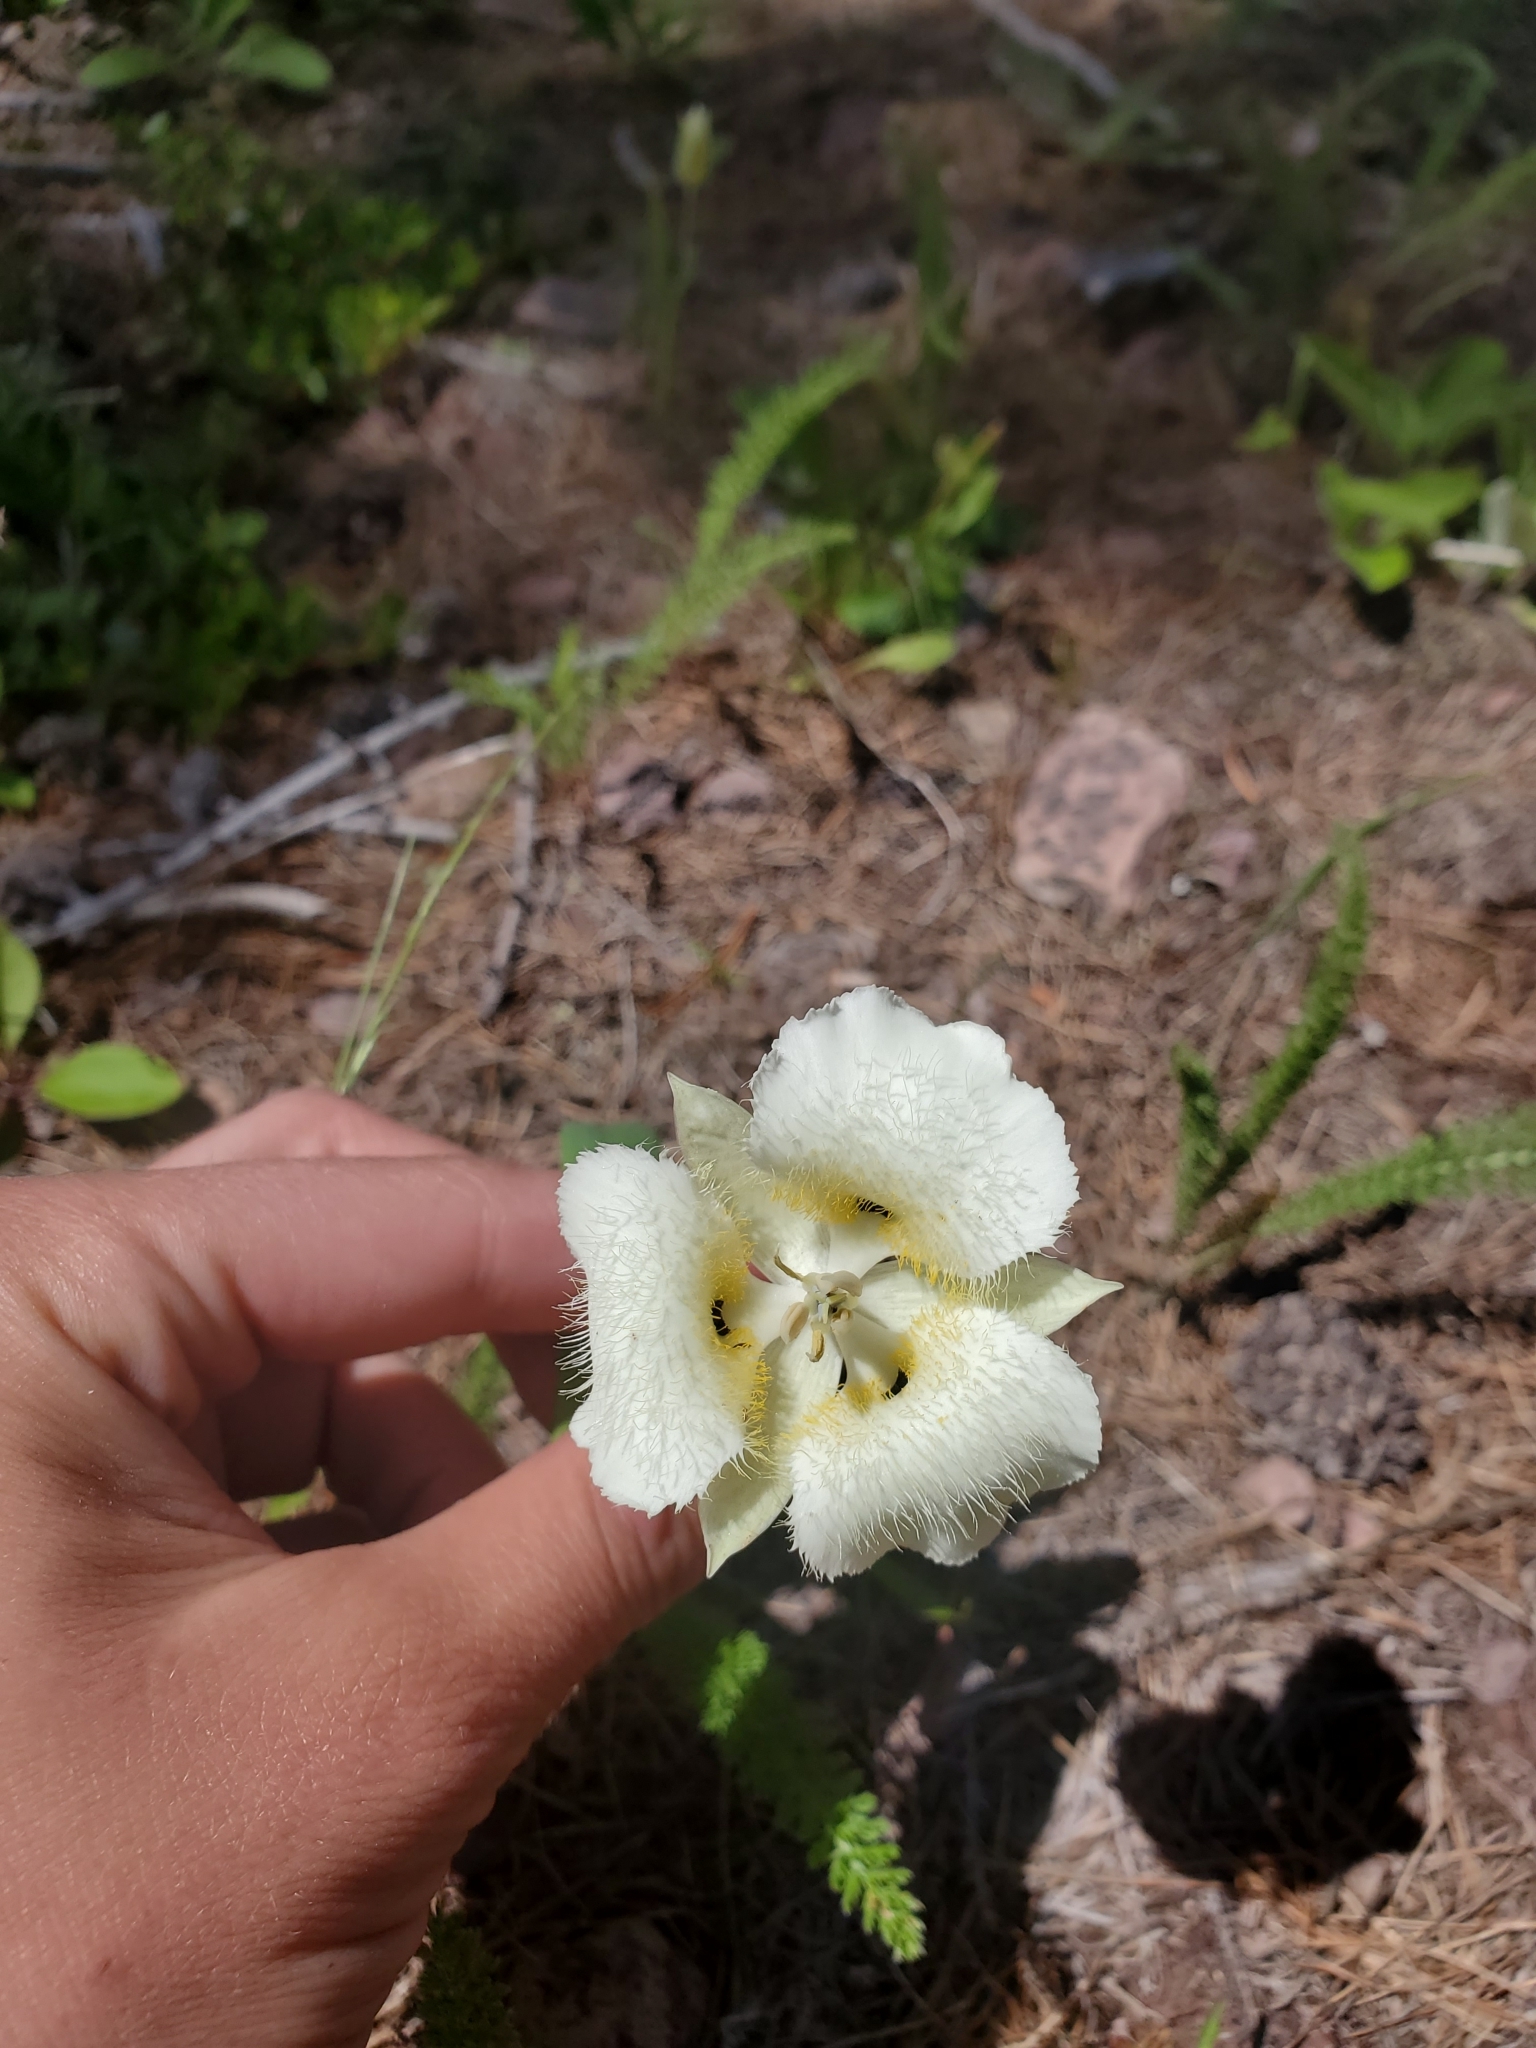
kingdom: Plantae
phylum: Tracheophyta
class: Liliopsida
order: Liliales
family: Liliaceae
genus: Calochortus
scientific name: Calochortus apiculatus
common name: Baker's mariposa lily
